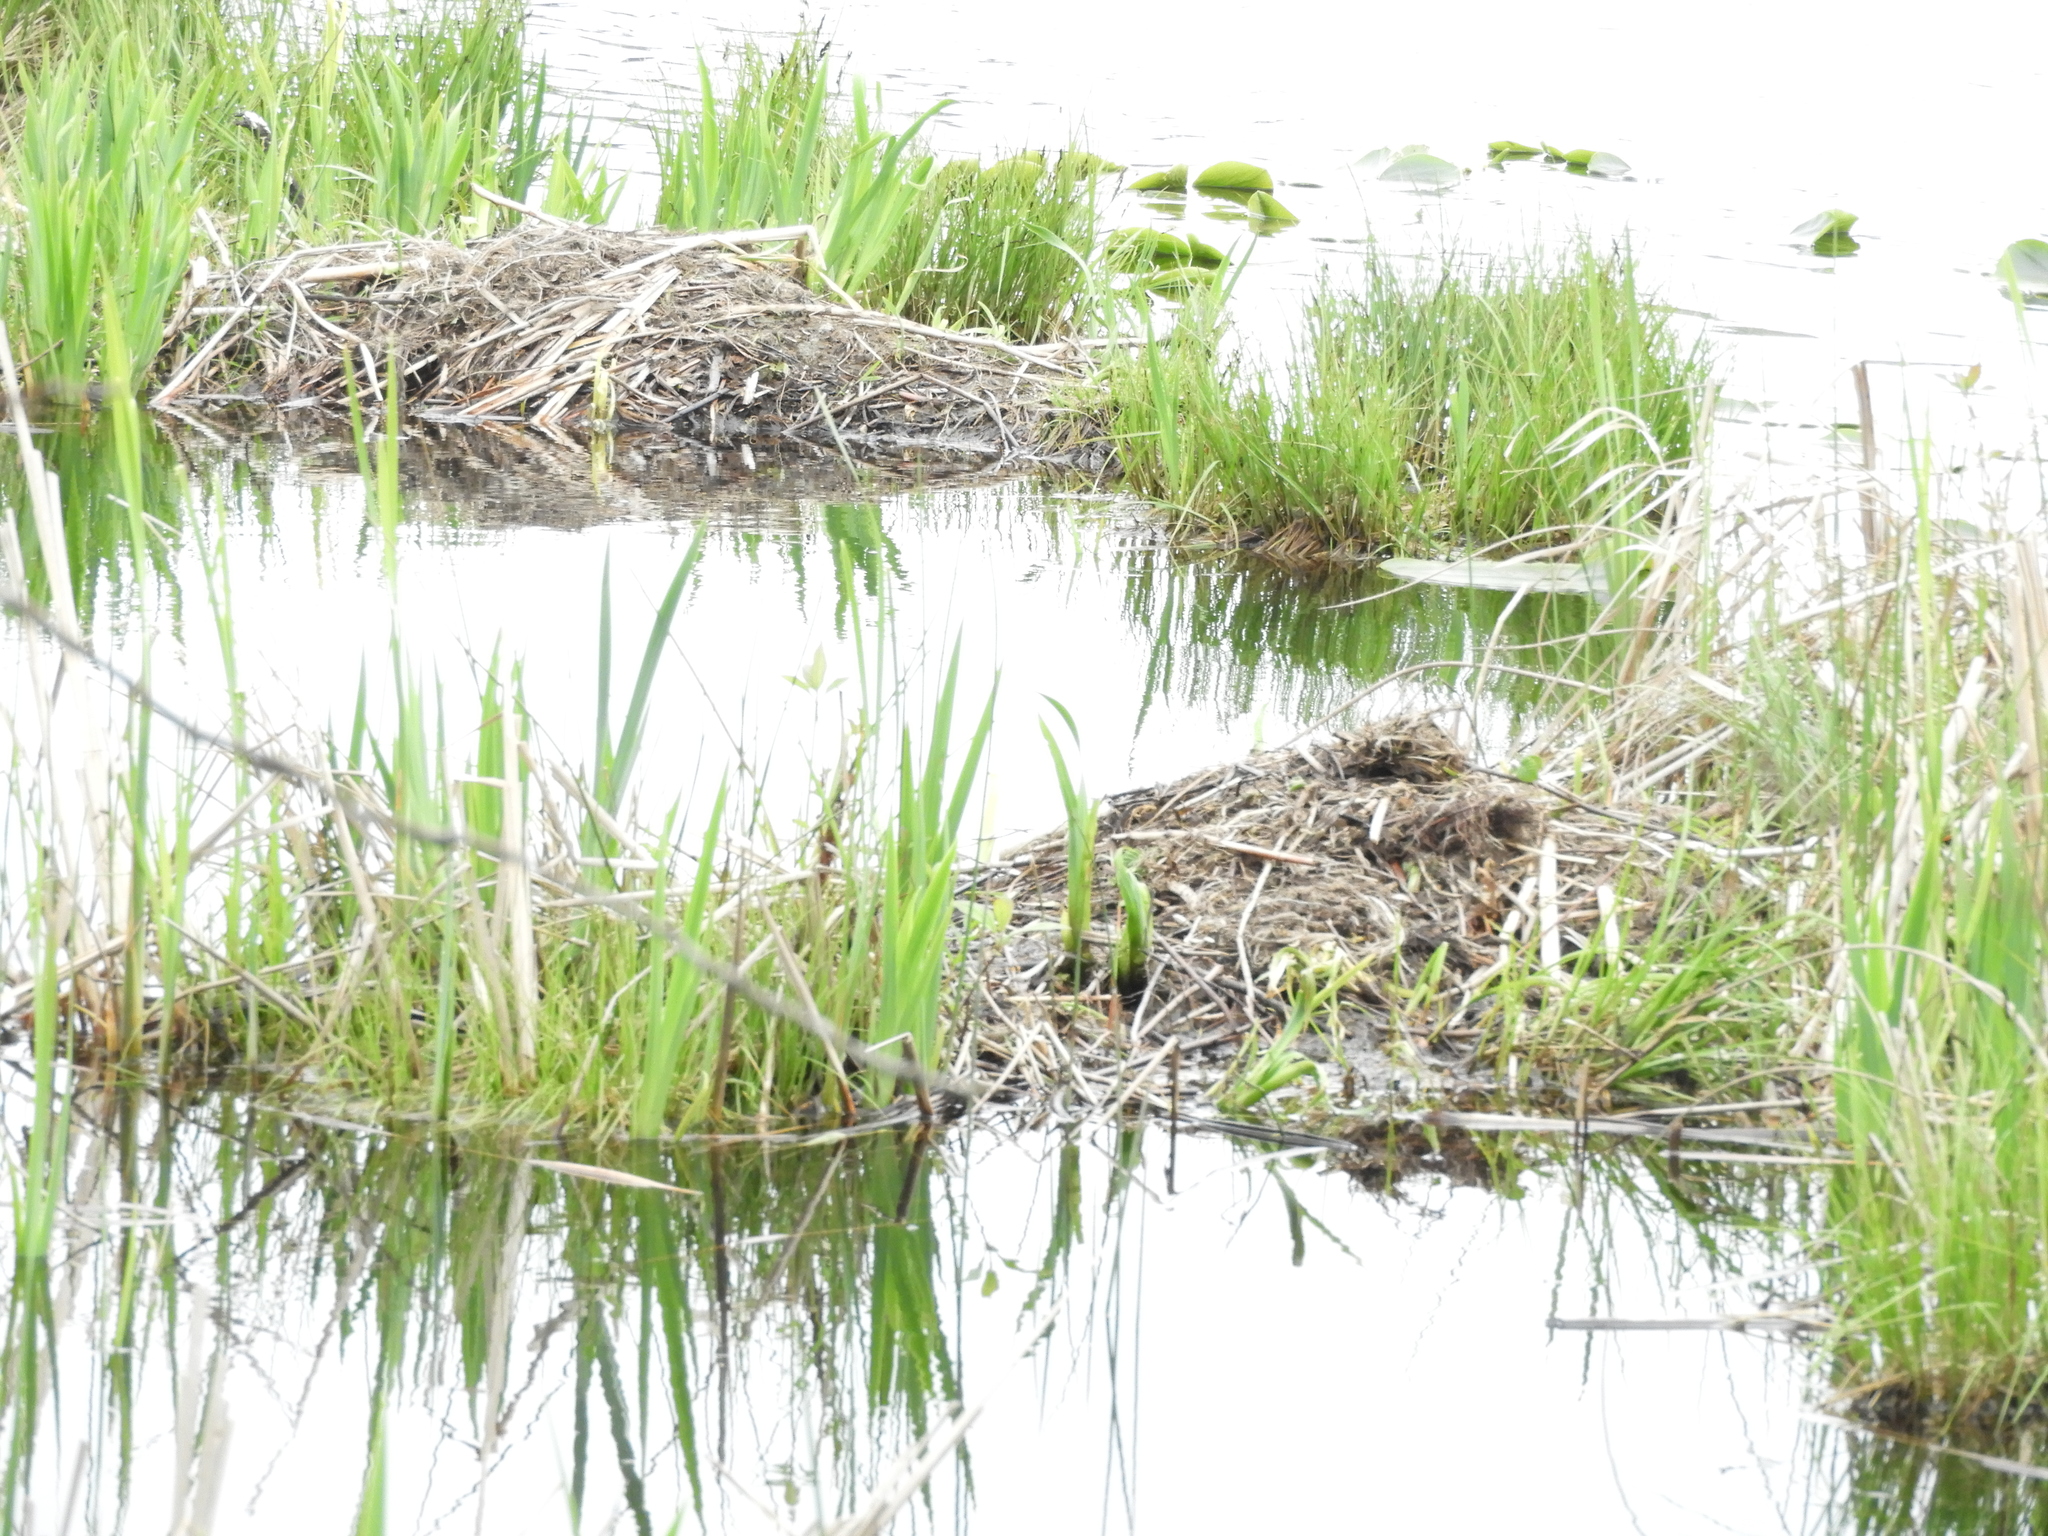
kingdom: Animalia
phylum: Chordata
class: Mammalia
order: Rodentia
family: Cricetidae
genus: Ondatra
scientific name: Ondatra zibethicus
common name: Muskrat
